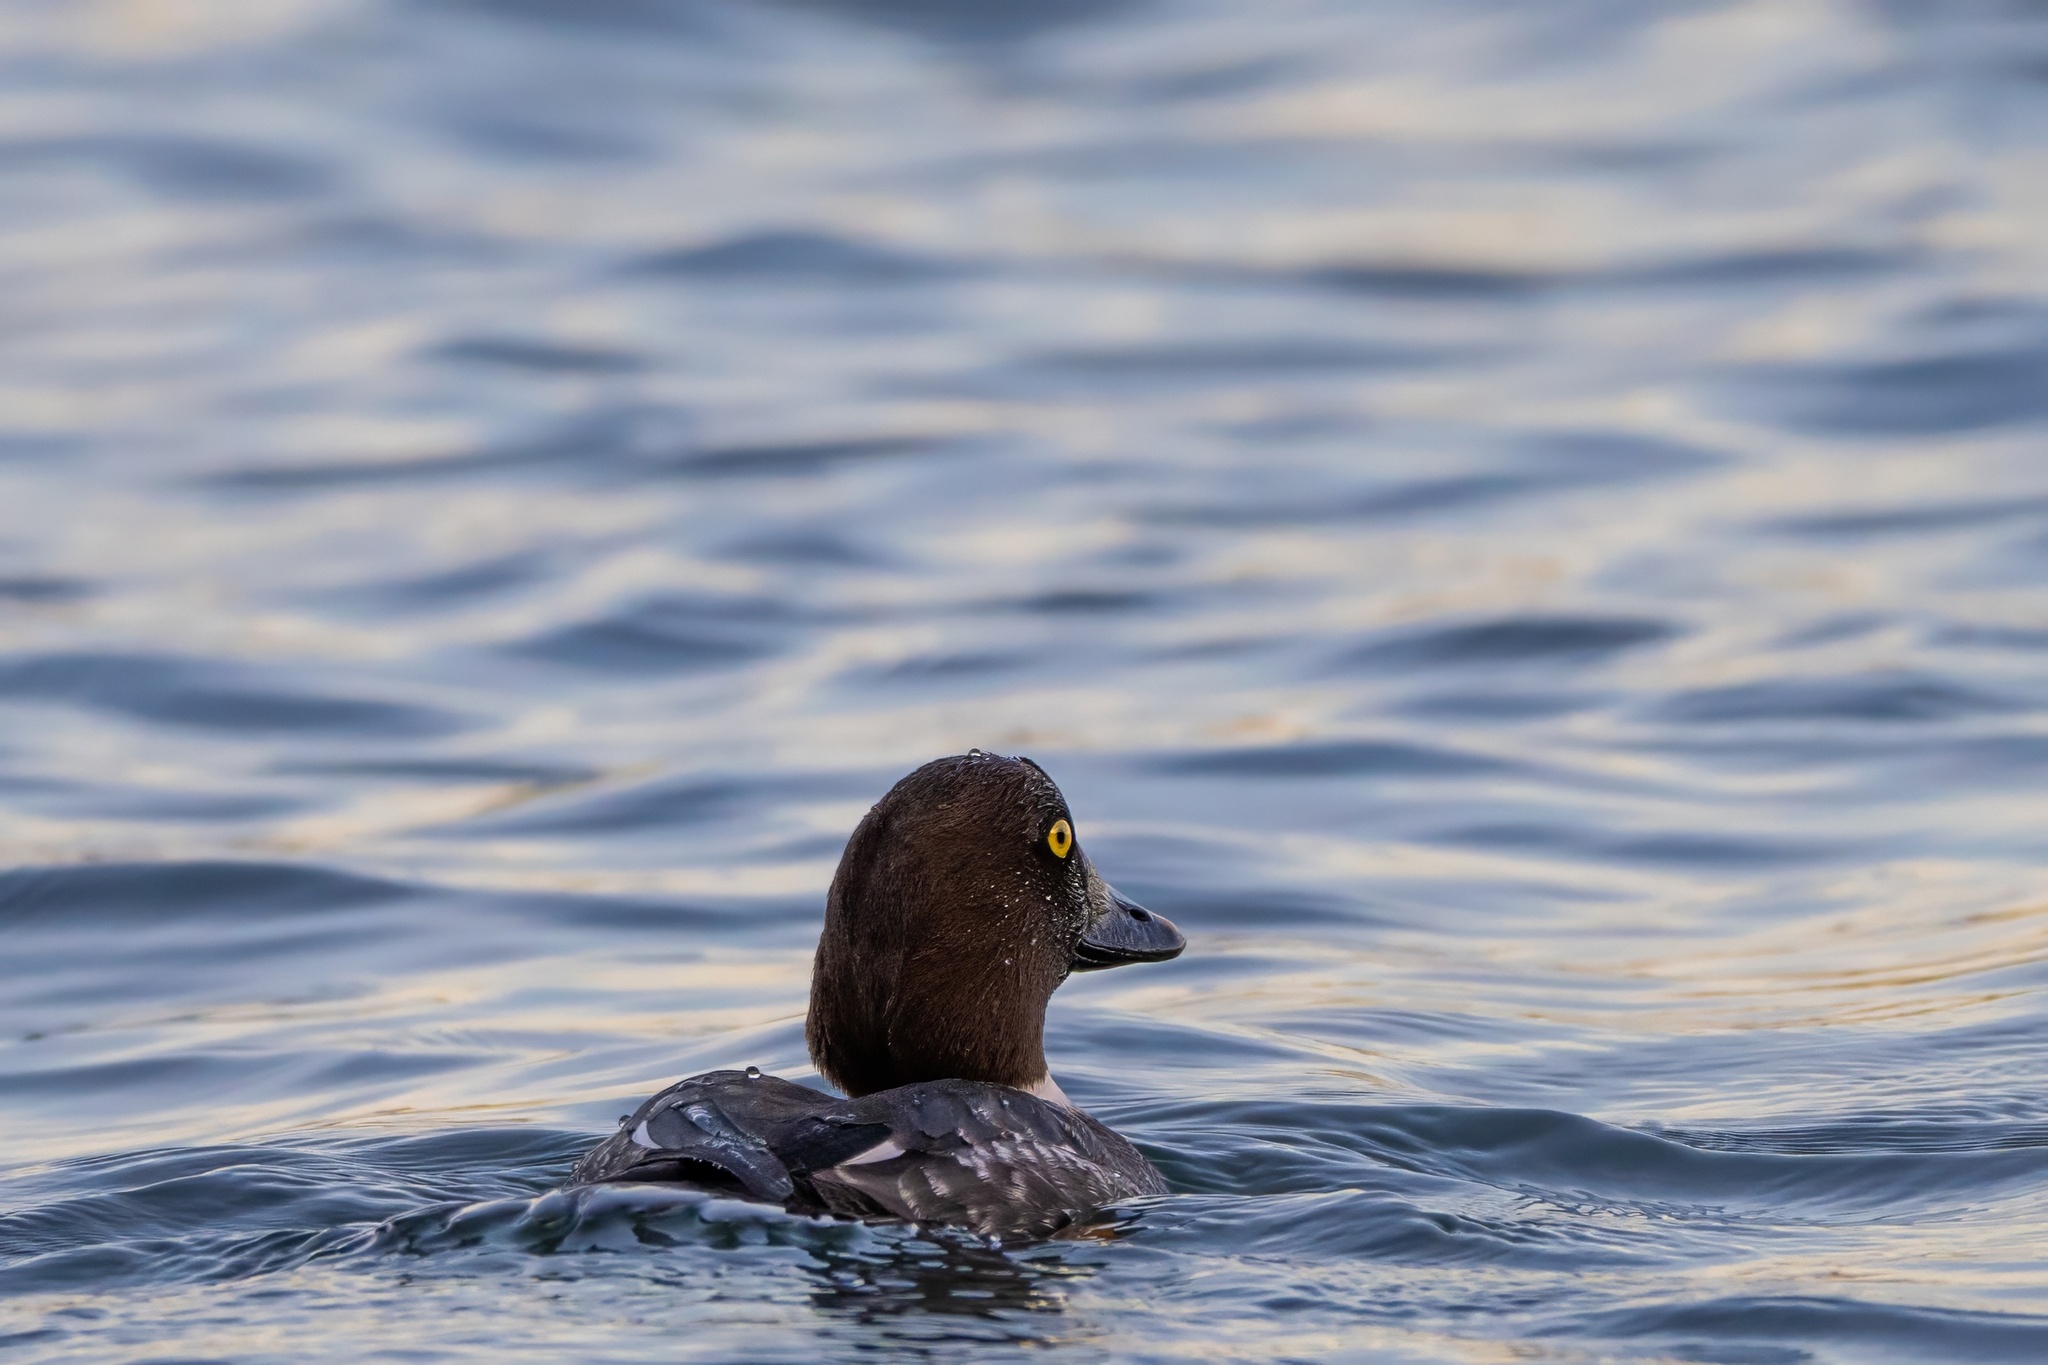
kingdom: Animalia
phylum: Chordata
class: Aves
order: Anseriformes
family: Anatidae
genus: Bucephala
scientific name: Bucephala clangula
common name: Common goldeneye
